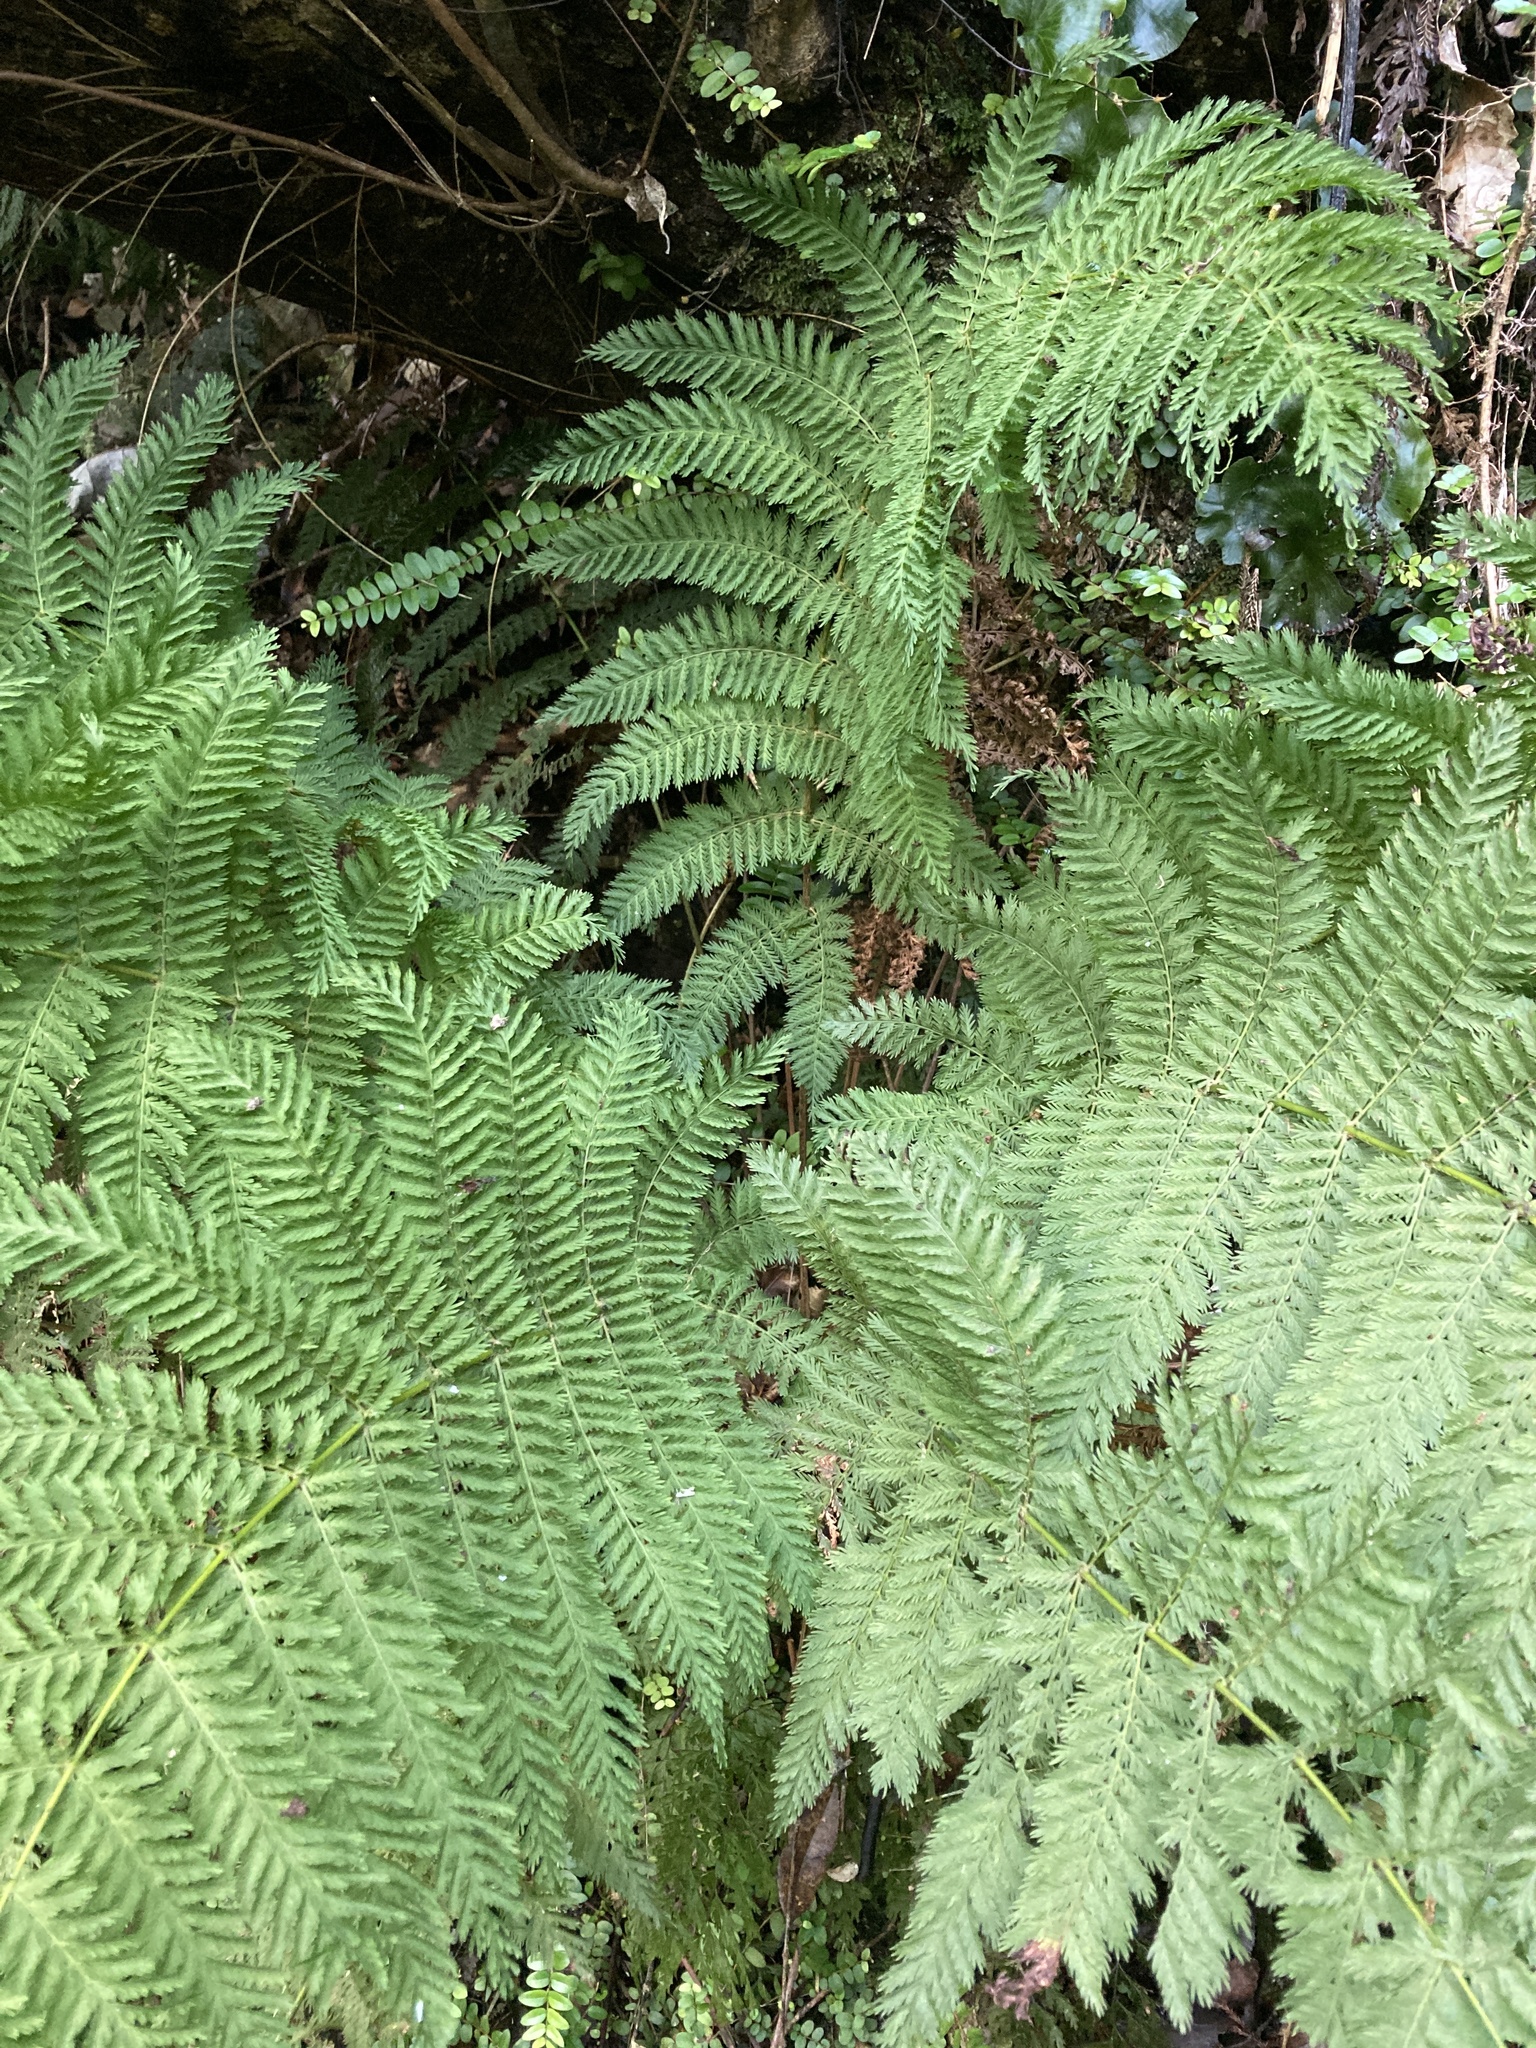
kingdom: Plantae
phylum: Tracheophyta
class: Polypodiopsida
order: Osmundales
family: Osmundaceae
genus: Leptopteris
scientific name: Leptopteris hymenophylloides
